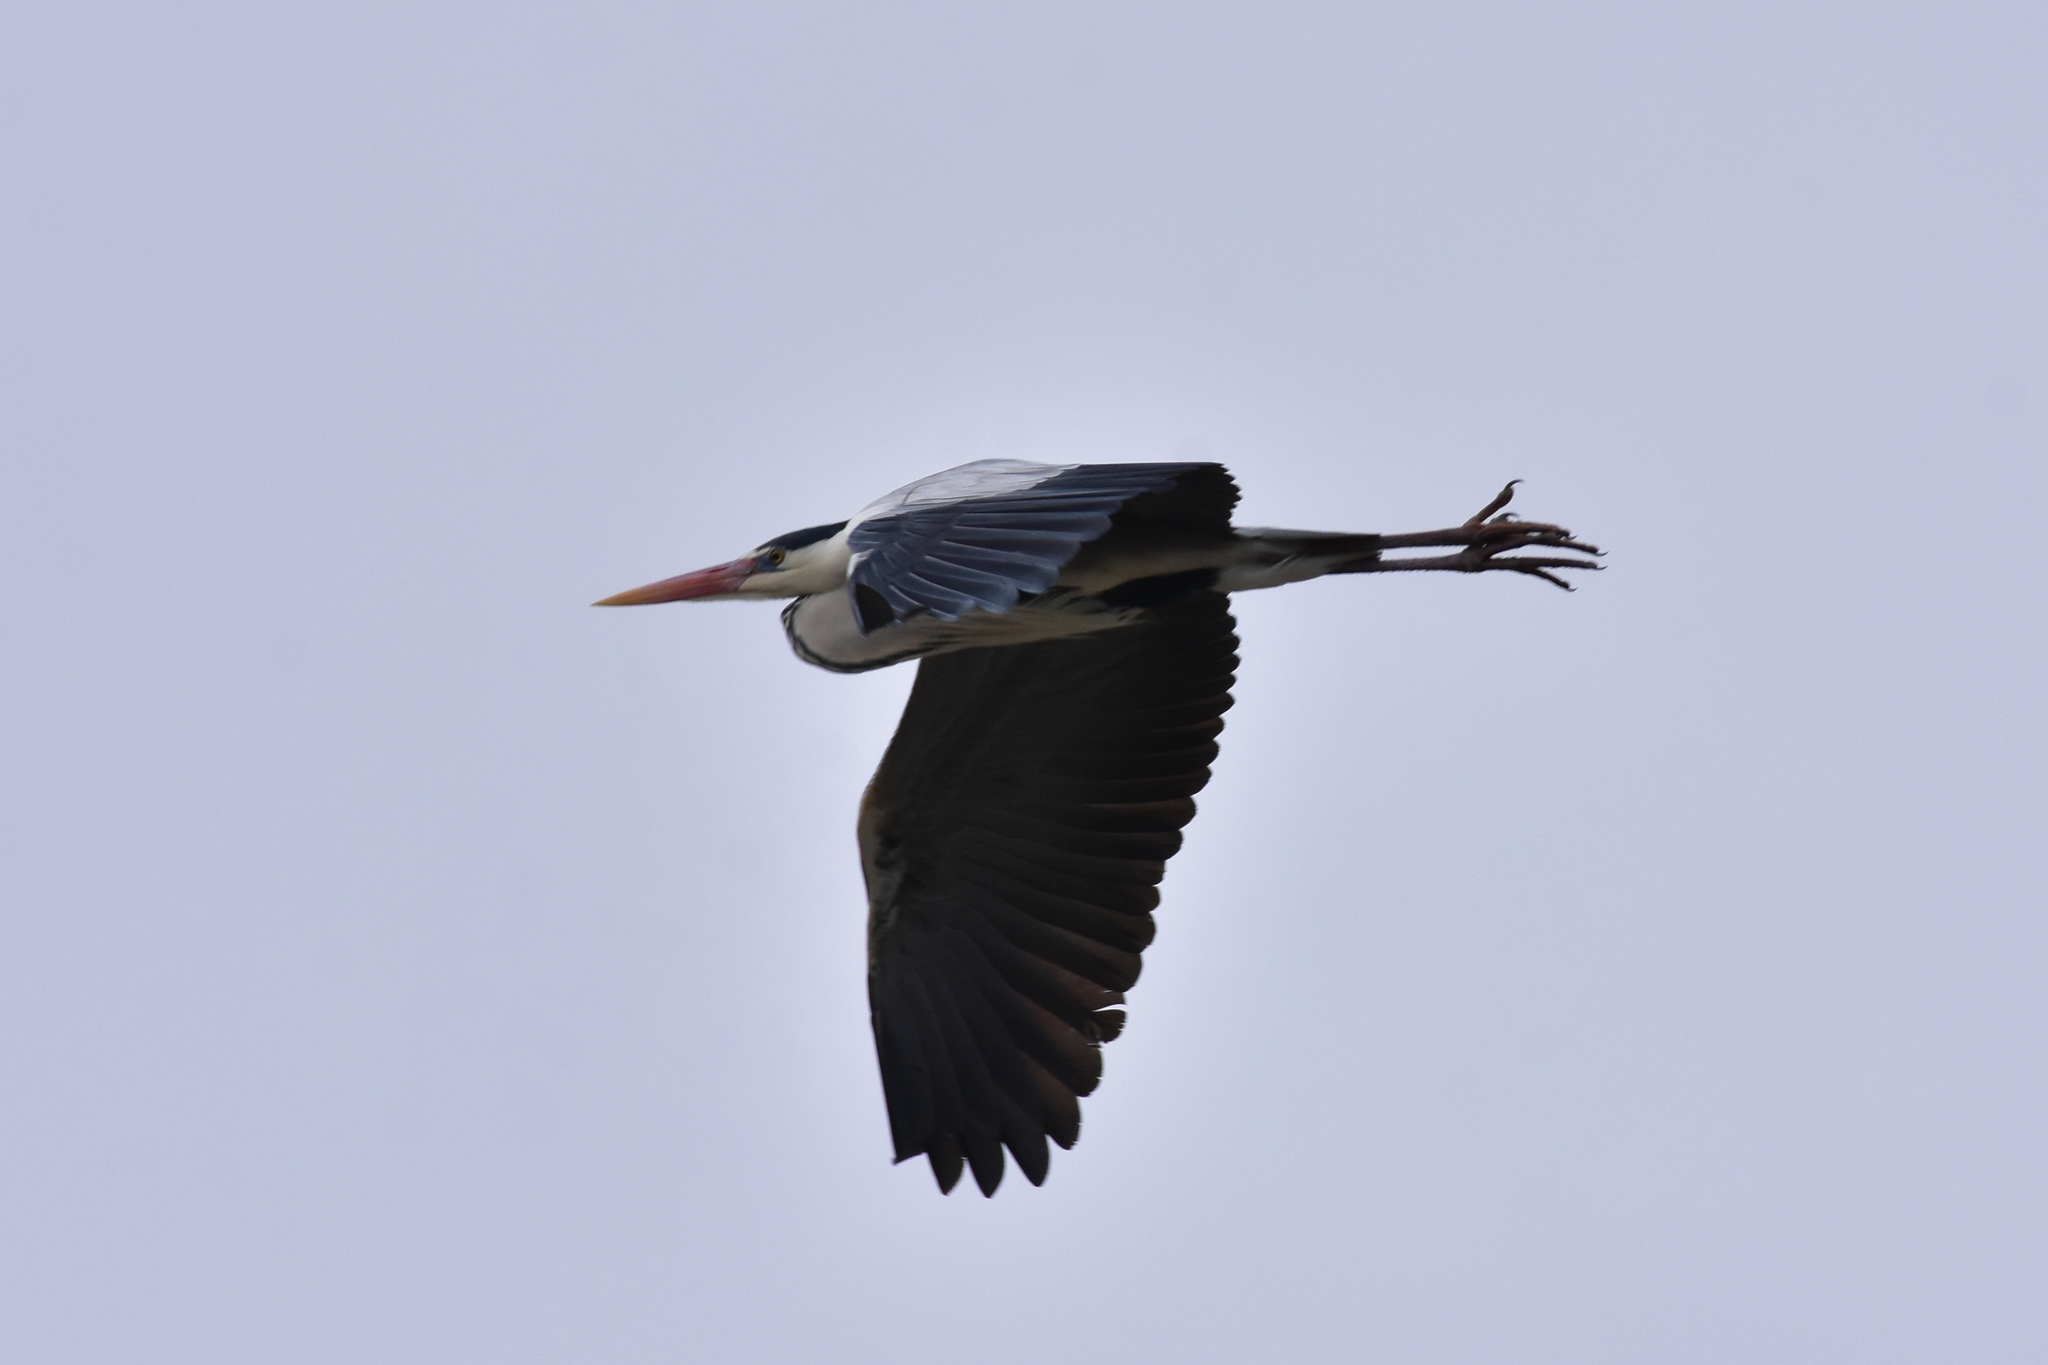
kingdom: Animalia
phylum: Chordata
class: Aves
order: Pelecaniformes
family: Ardeidae
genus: Ardea
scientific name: Ardea cinerea
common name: Grey heron
